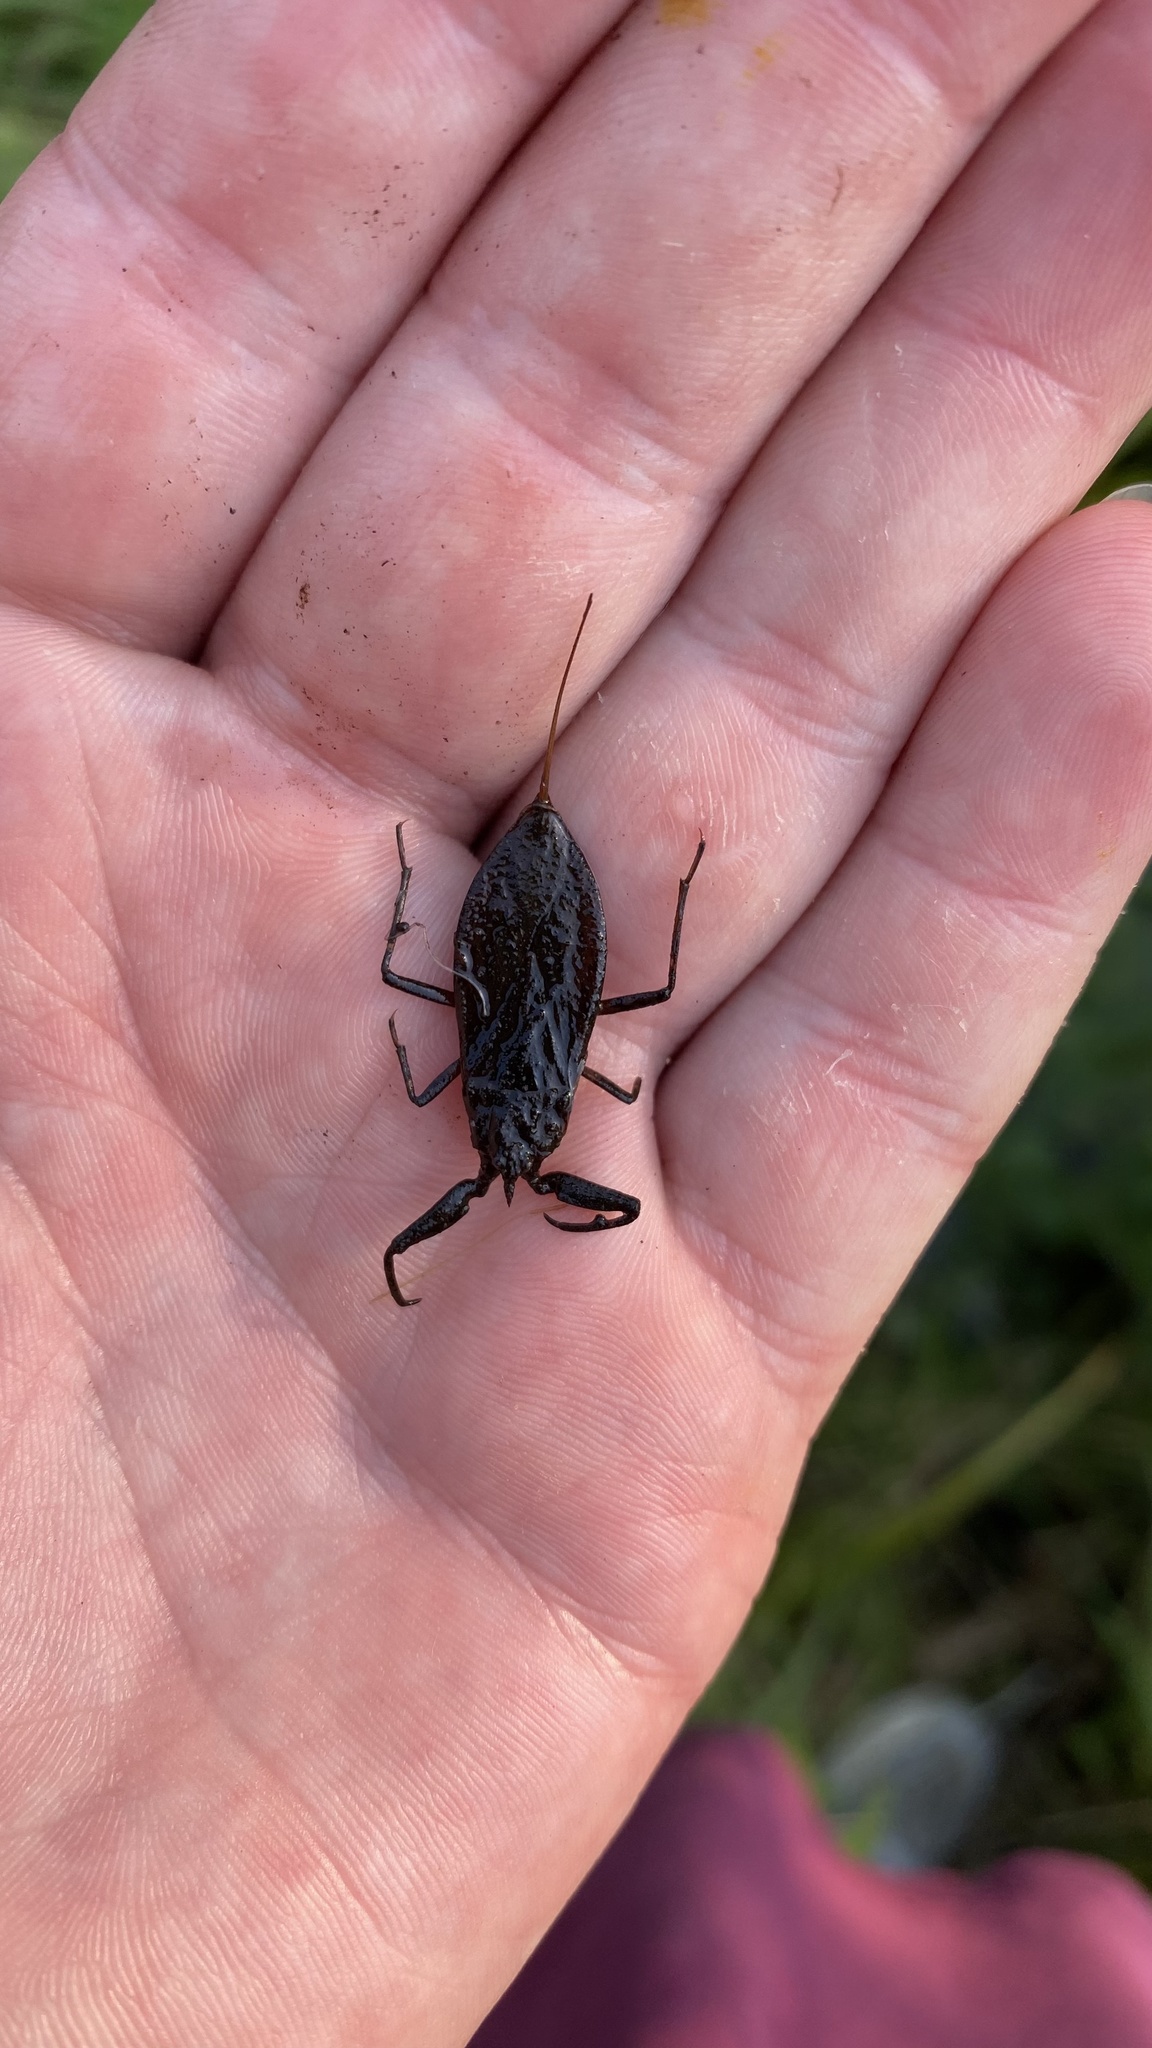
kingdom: Animalia
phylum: Arthropoda
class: Insecta
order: Hemiptera
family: Nepidae
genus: Nepa
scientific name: Nepa cinerea
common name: Water scorpion
